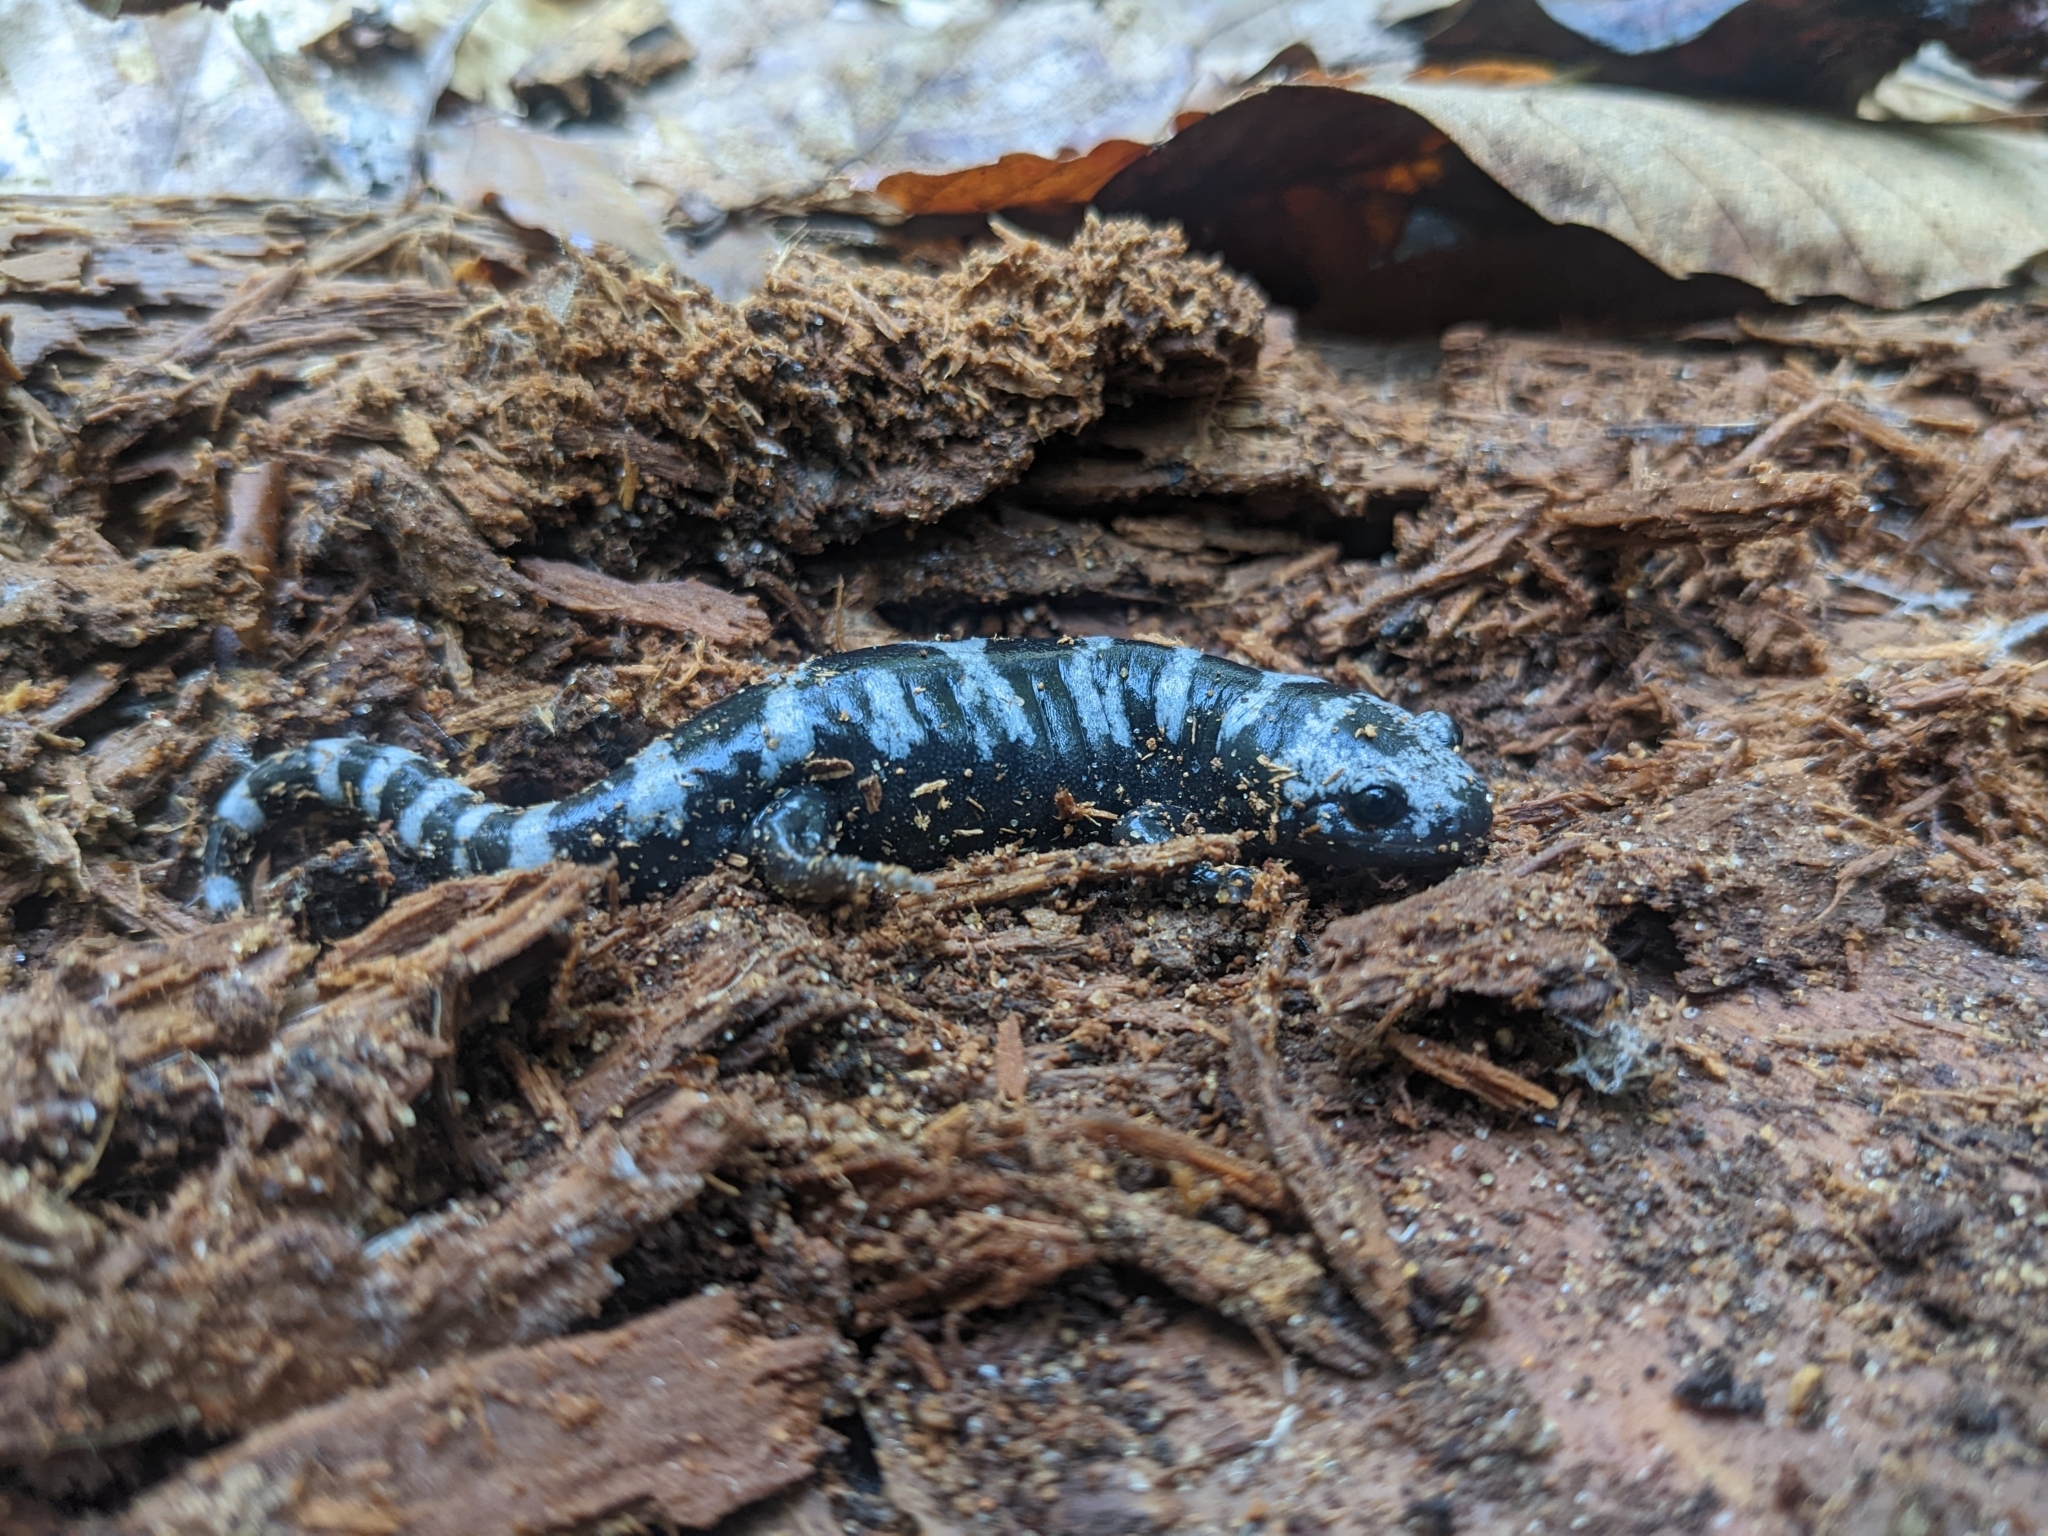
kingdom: Animalia
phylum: Chordata
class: Amphibia
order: Caudata
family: Ambystomatidae
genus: Ambystoma
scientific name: Ambystoma opacum
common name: Marbled salamander
